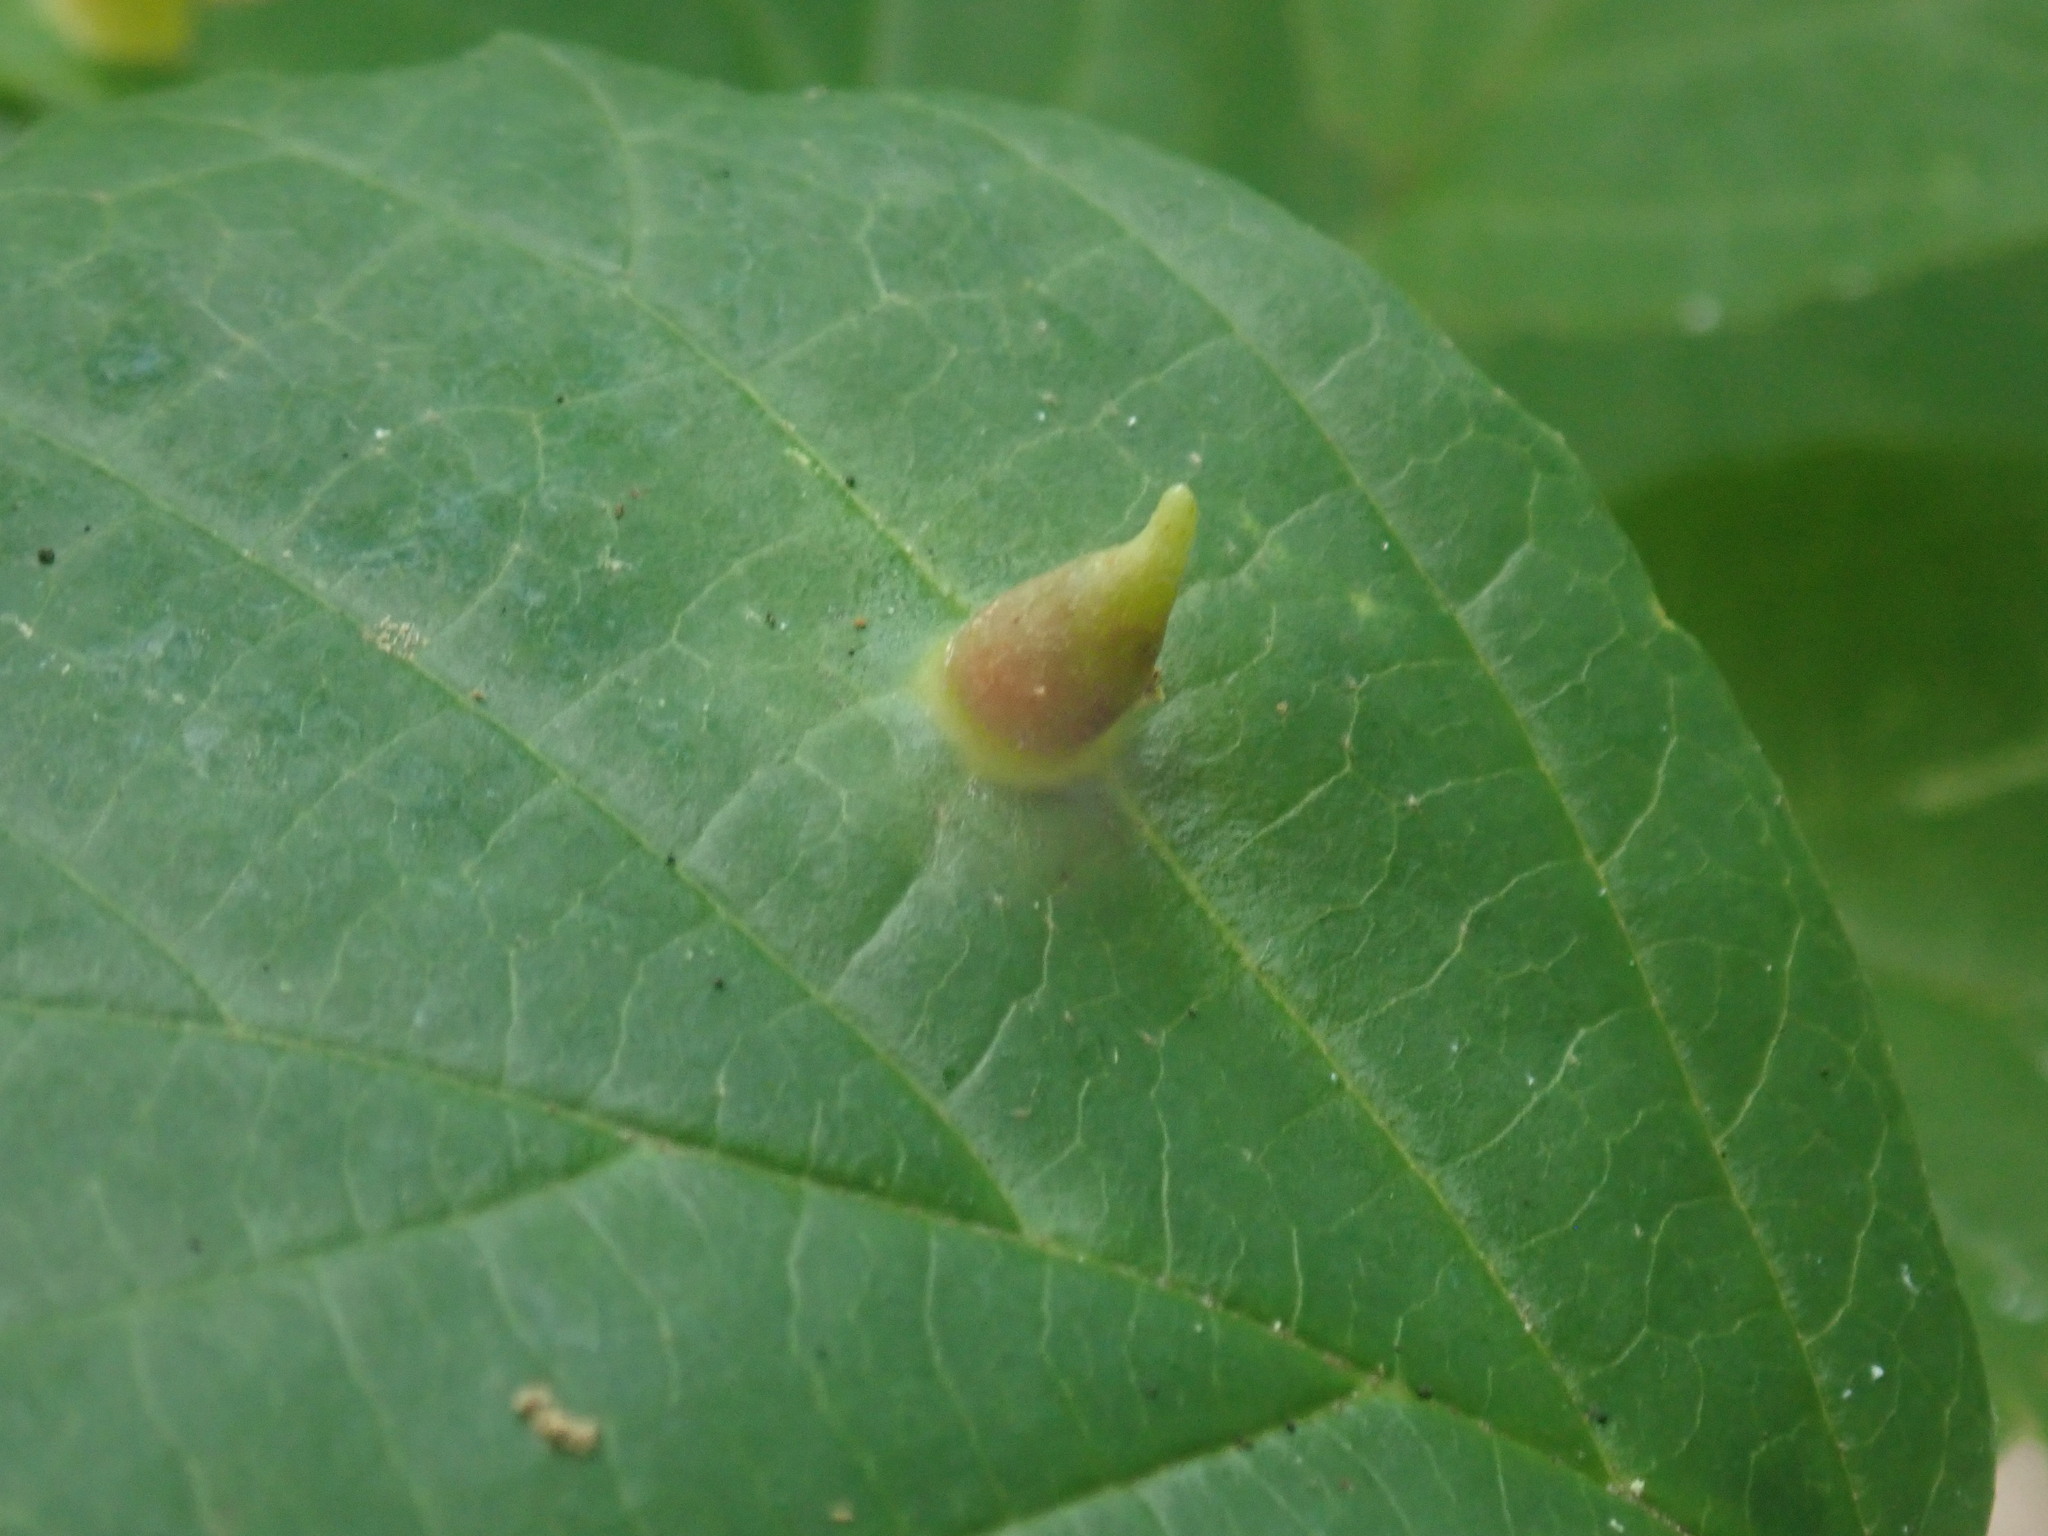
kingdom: Animalia
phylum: Arthropoda
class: Insecta
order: Hemiptera
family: Aphididae
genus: Hormaphis
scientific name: Hormaphis hamamelidis
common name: Witch-hazel cone gall aphid
